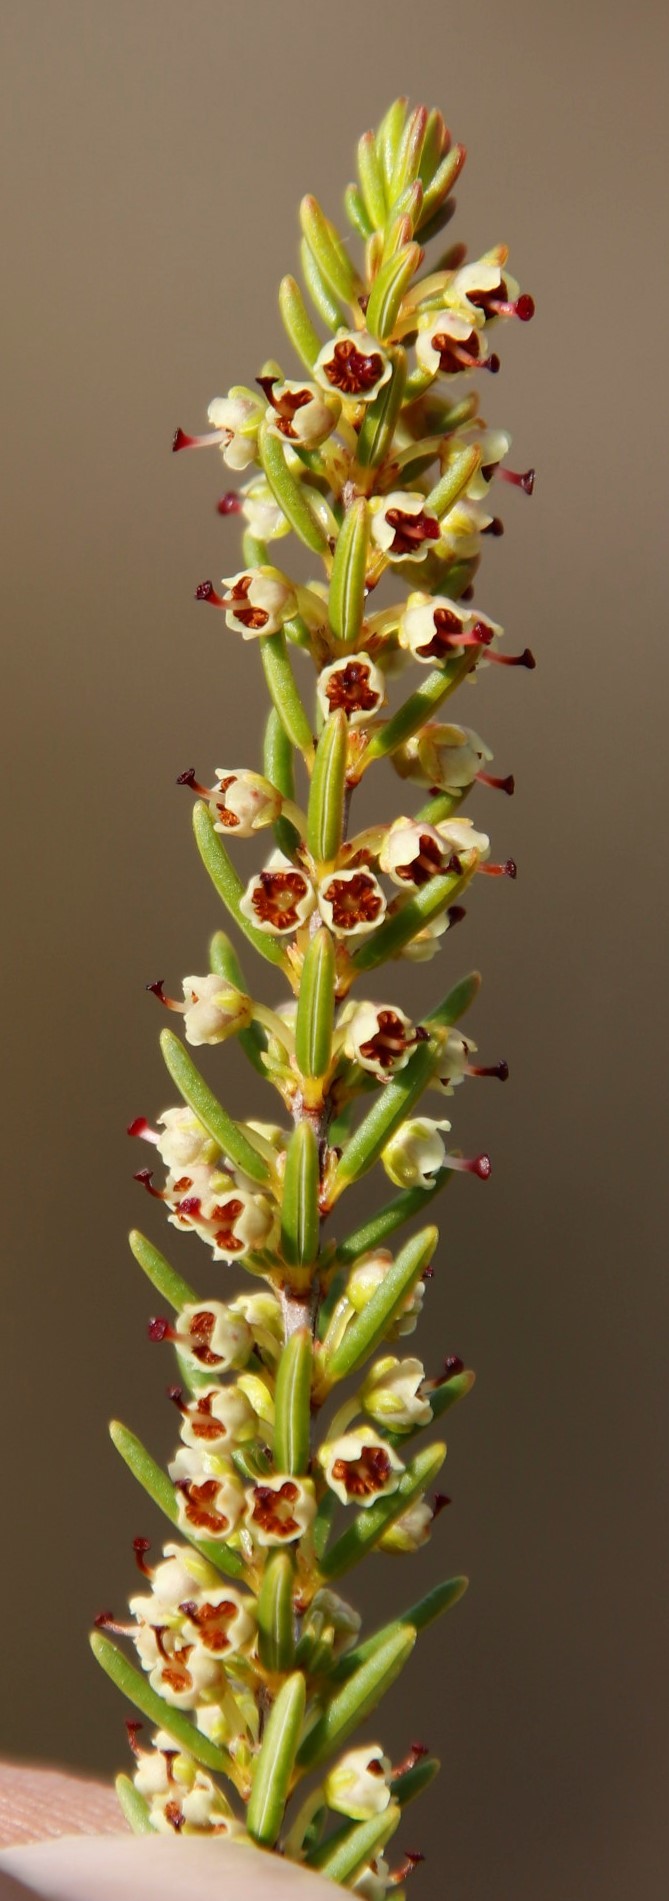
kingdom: Plantae
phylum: Tracheophyta
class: Magnoliopsida
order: Ericales
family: Ericaceae
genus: Erica
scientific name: Erica coarctata
